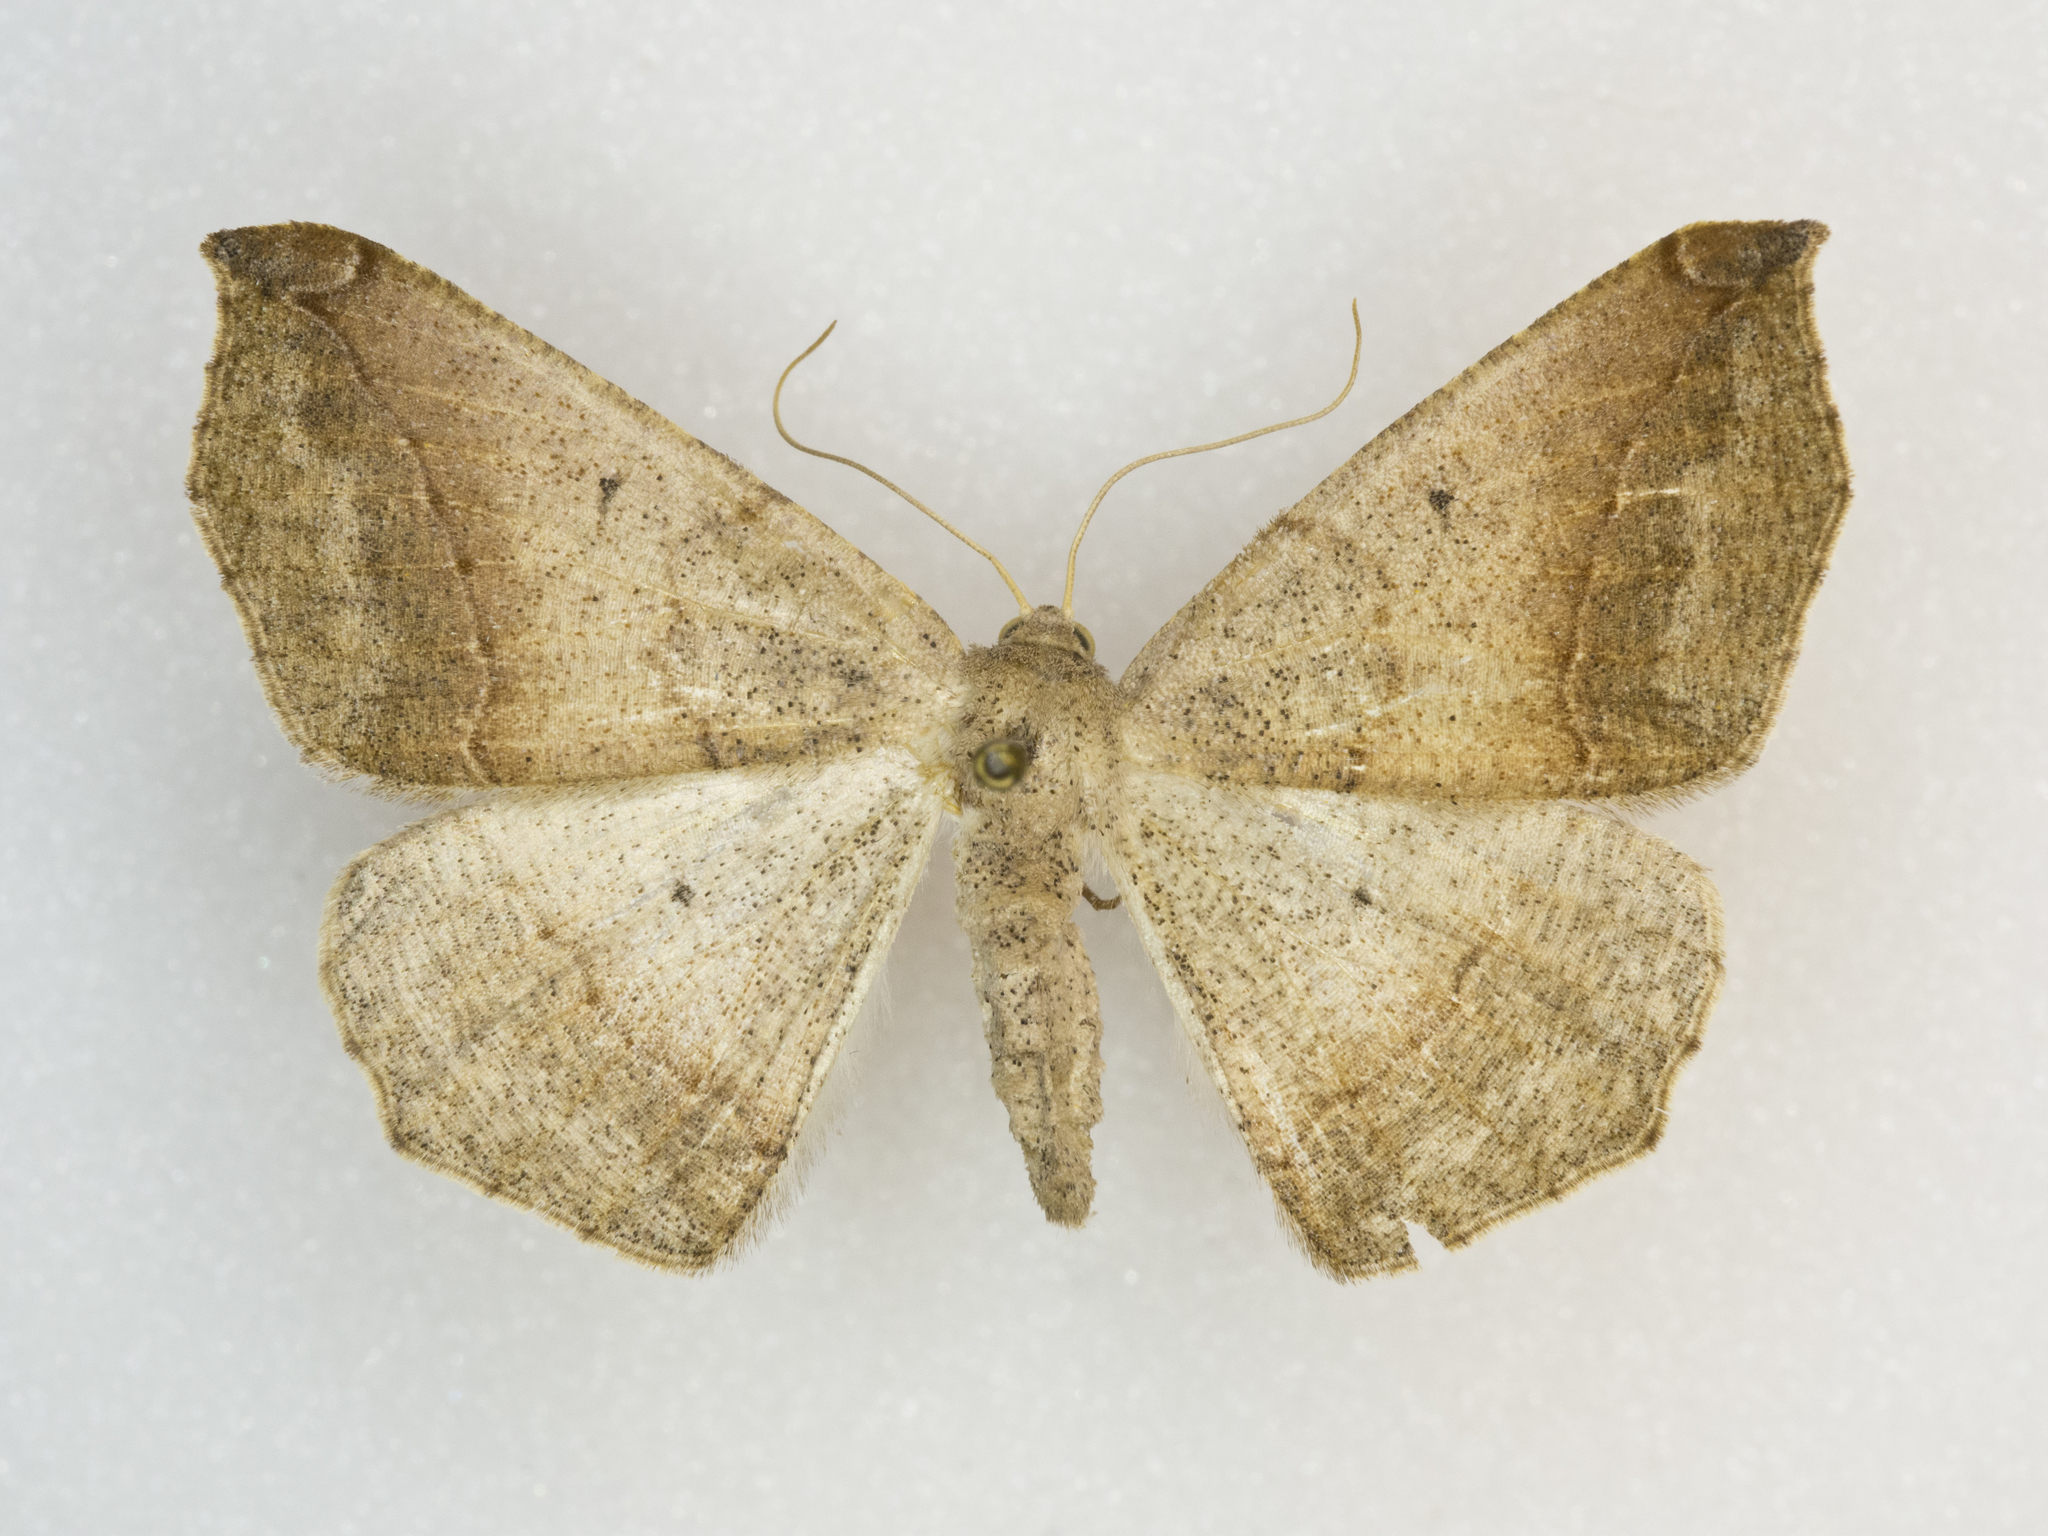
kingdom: Animalia
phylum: Arthropoda
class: Insecta
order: Lepidoptera
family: Geometridae
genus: Prochoerodes
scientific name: Prochoerodes forficaria
